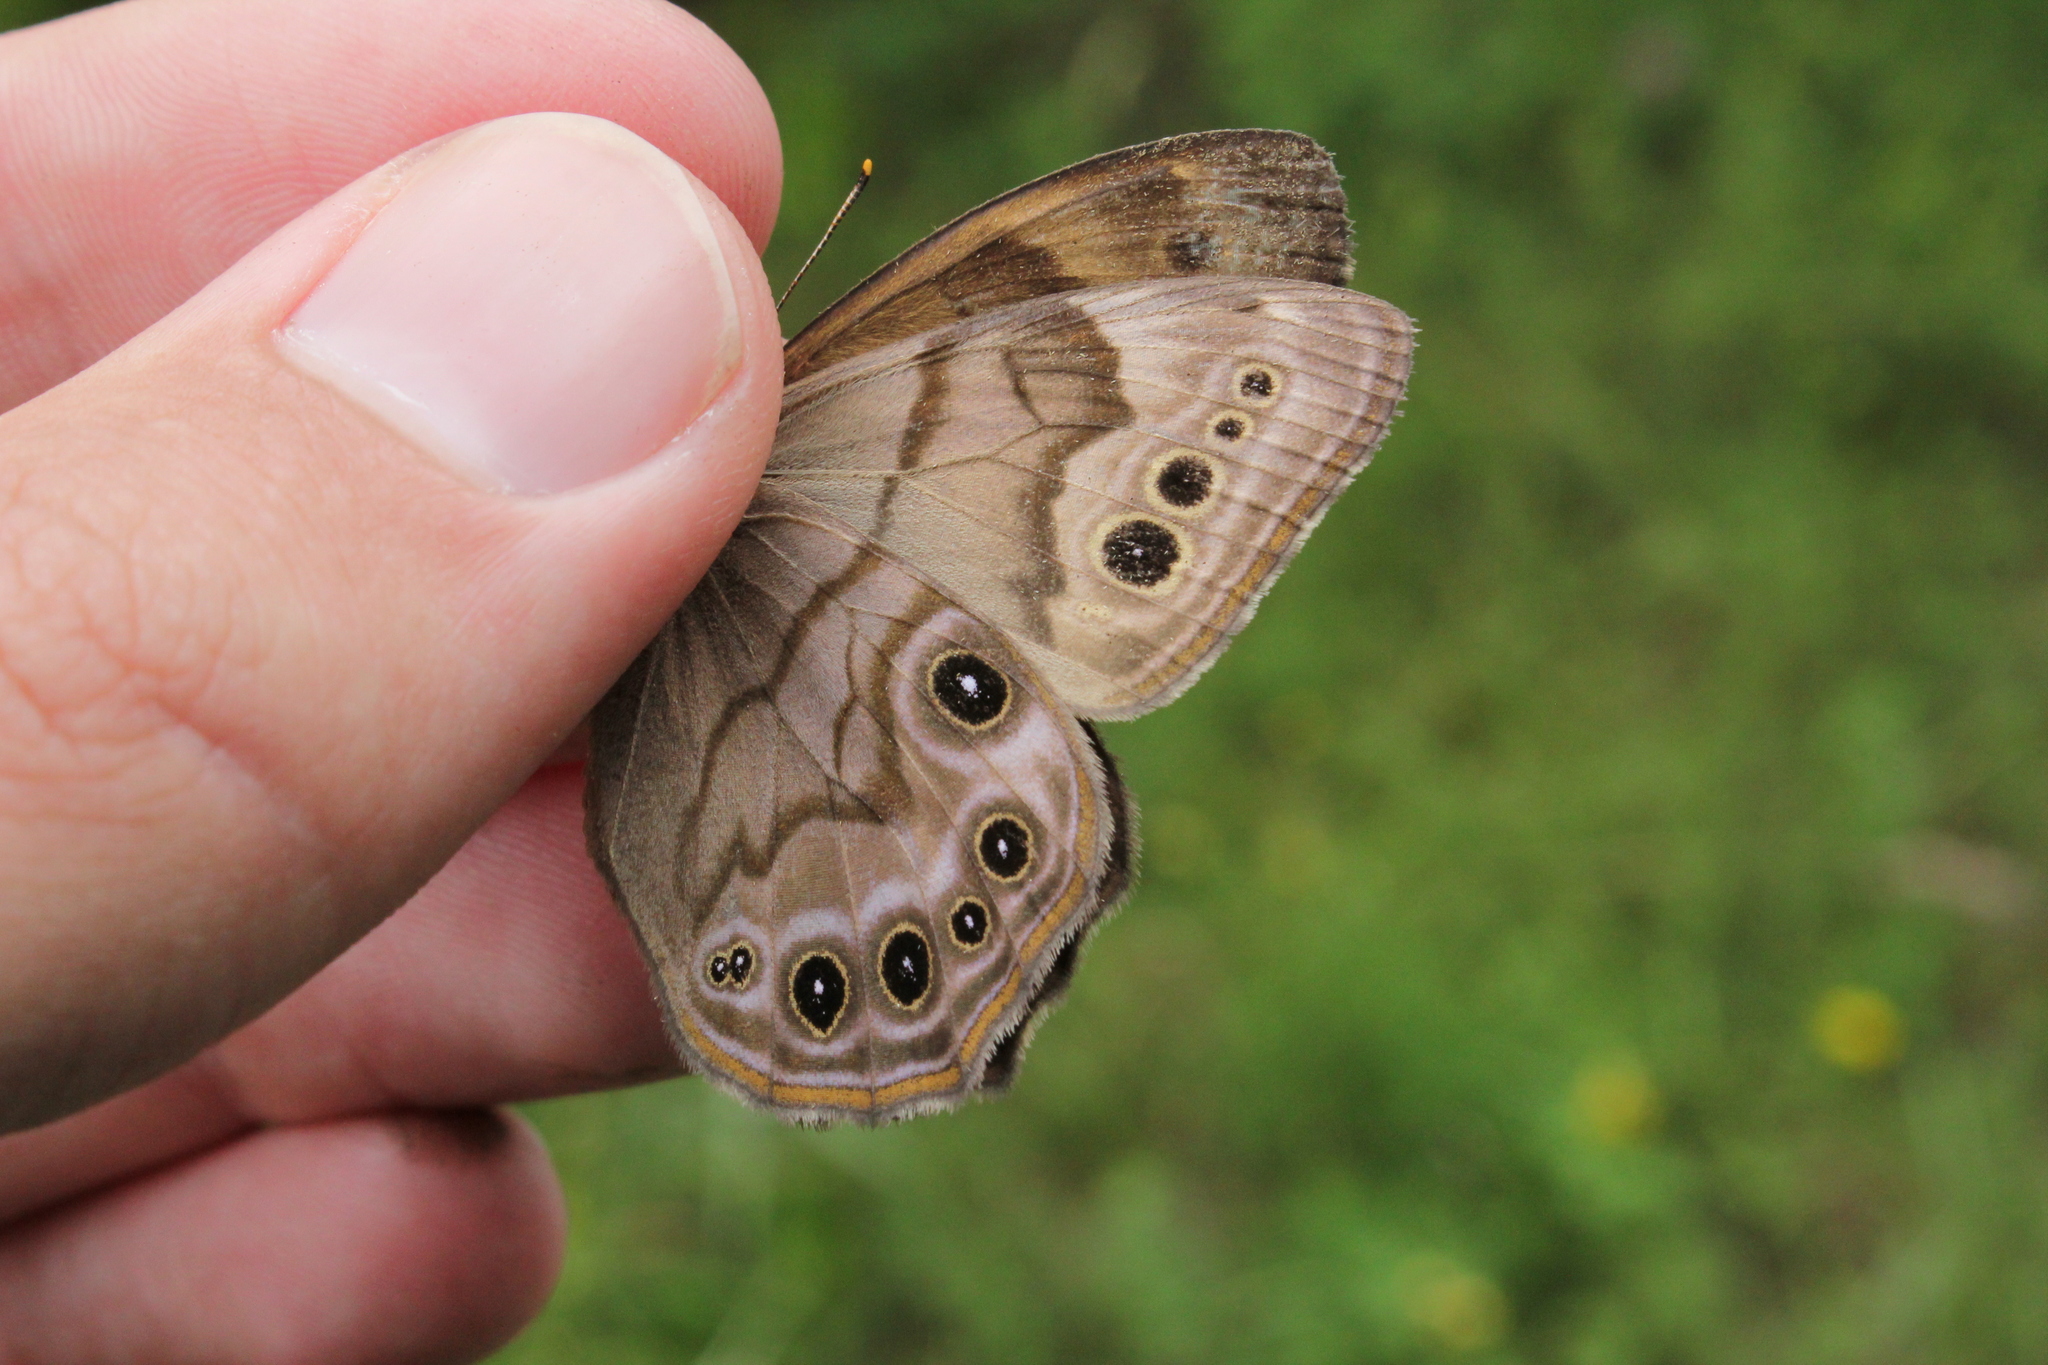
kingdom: Animalia
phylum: Arthropoda
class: Insecta
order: Lepidoptera
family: Nymphalidae
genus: Lethe
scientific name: Lethe anthedon
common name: Northern pearly-eye
